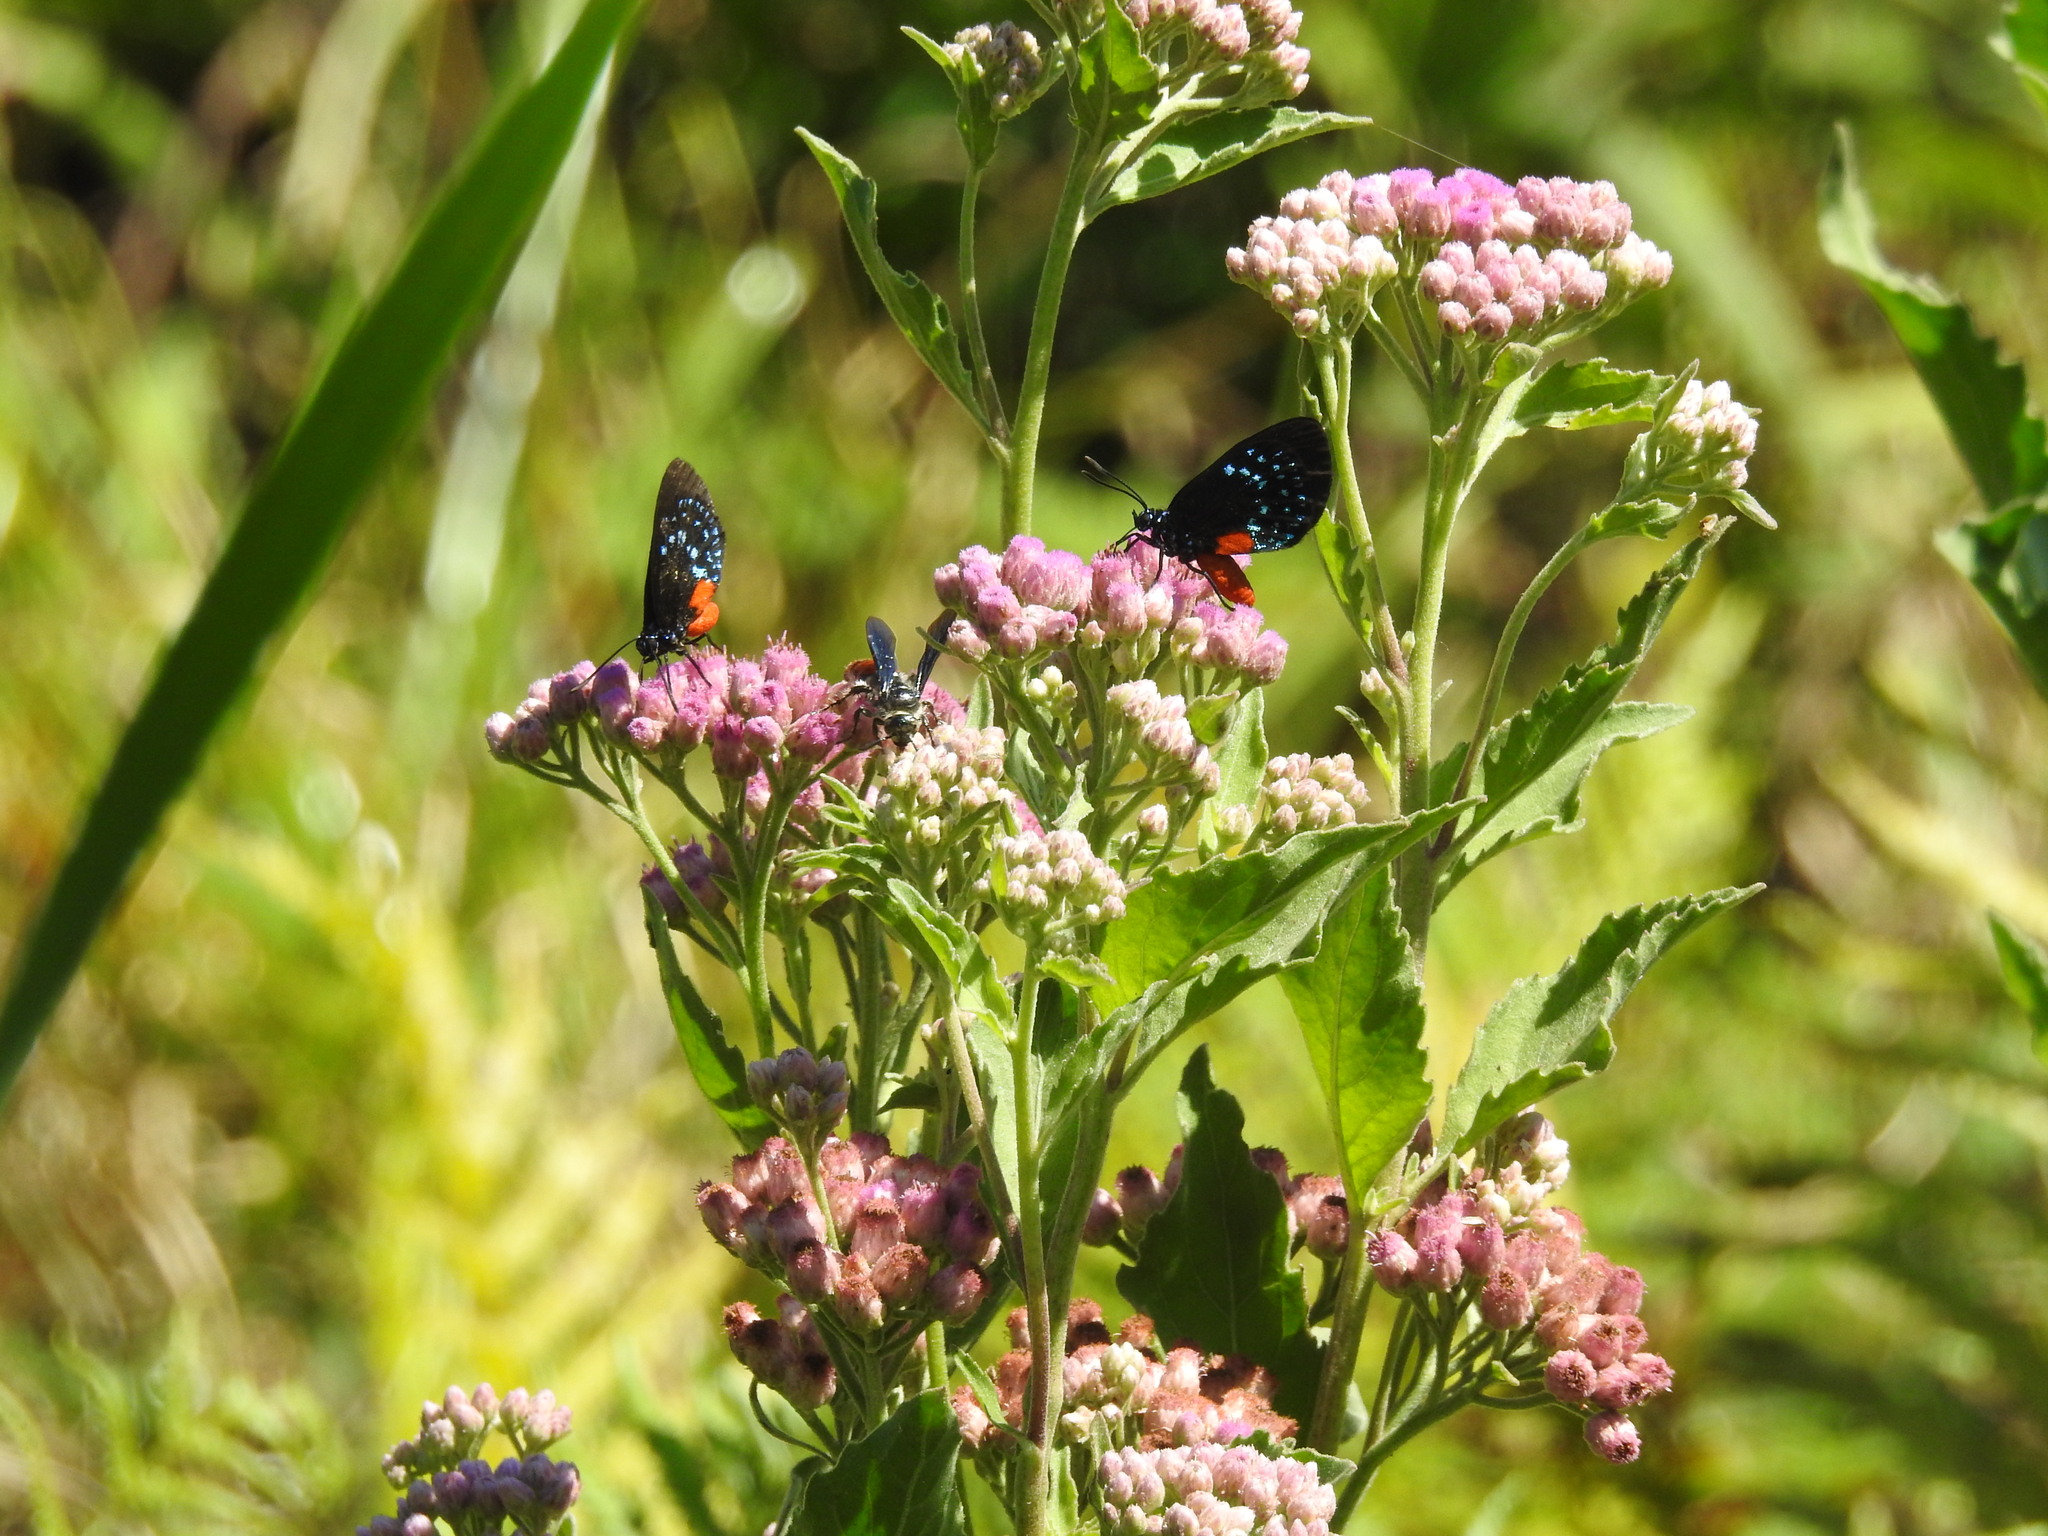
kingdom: Animalia
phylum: Arthropoda
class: Insecta
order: Lepidoptera
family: Lycaenidae
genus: Eumaeus
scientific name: Eumaeus atala
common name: Atala
